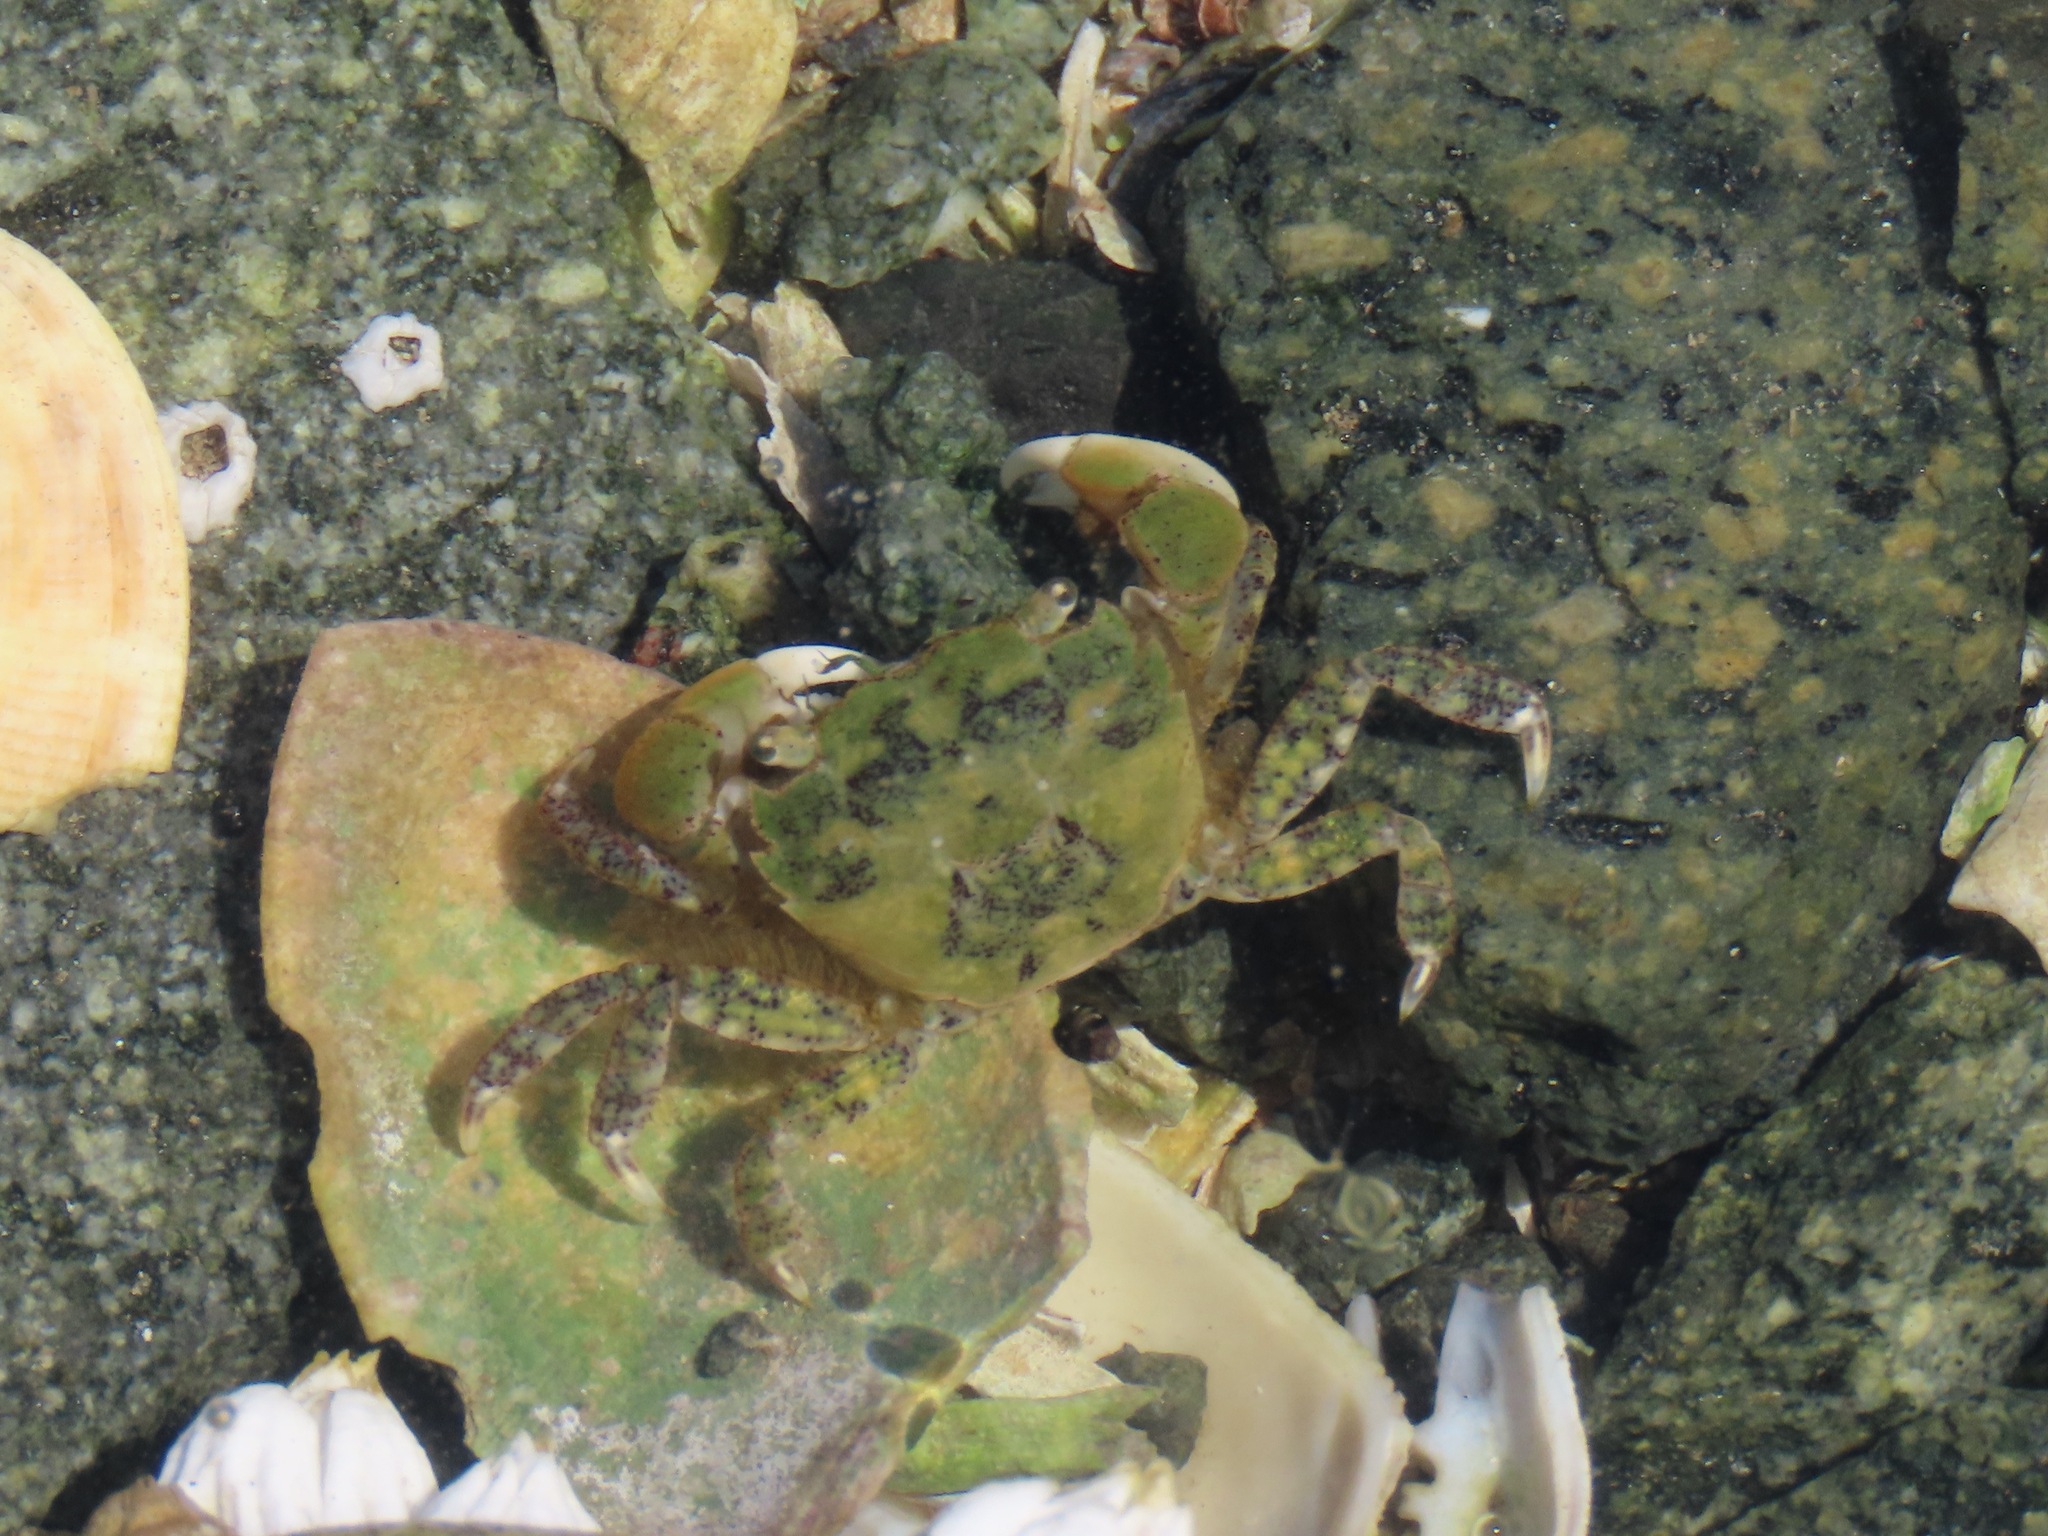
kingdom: Animalia
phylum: Arthropoda
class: Malacostraca
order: Decapoda
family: Varunidae
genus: Hemigrapsus
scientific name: Hemigrapsus oregonensis
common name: Yellow shore crab
